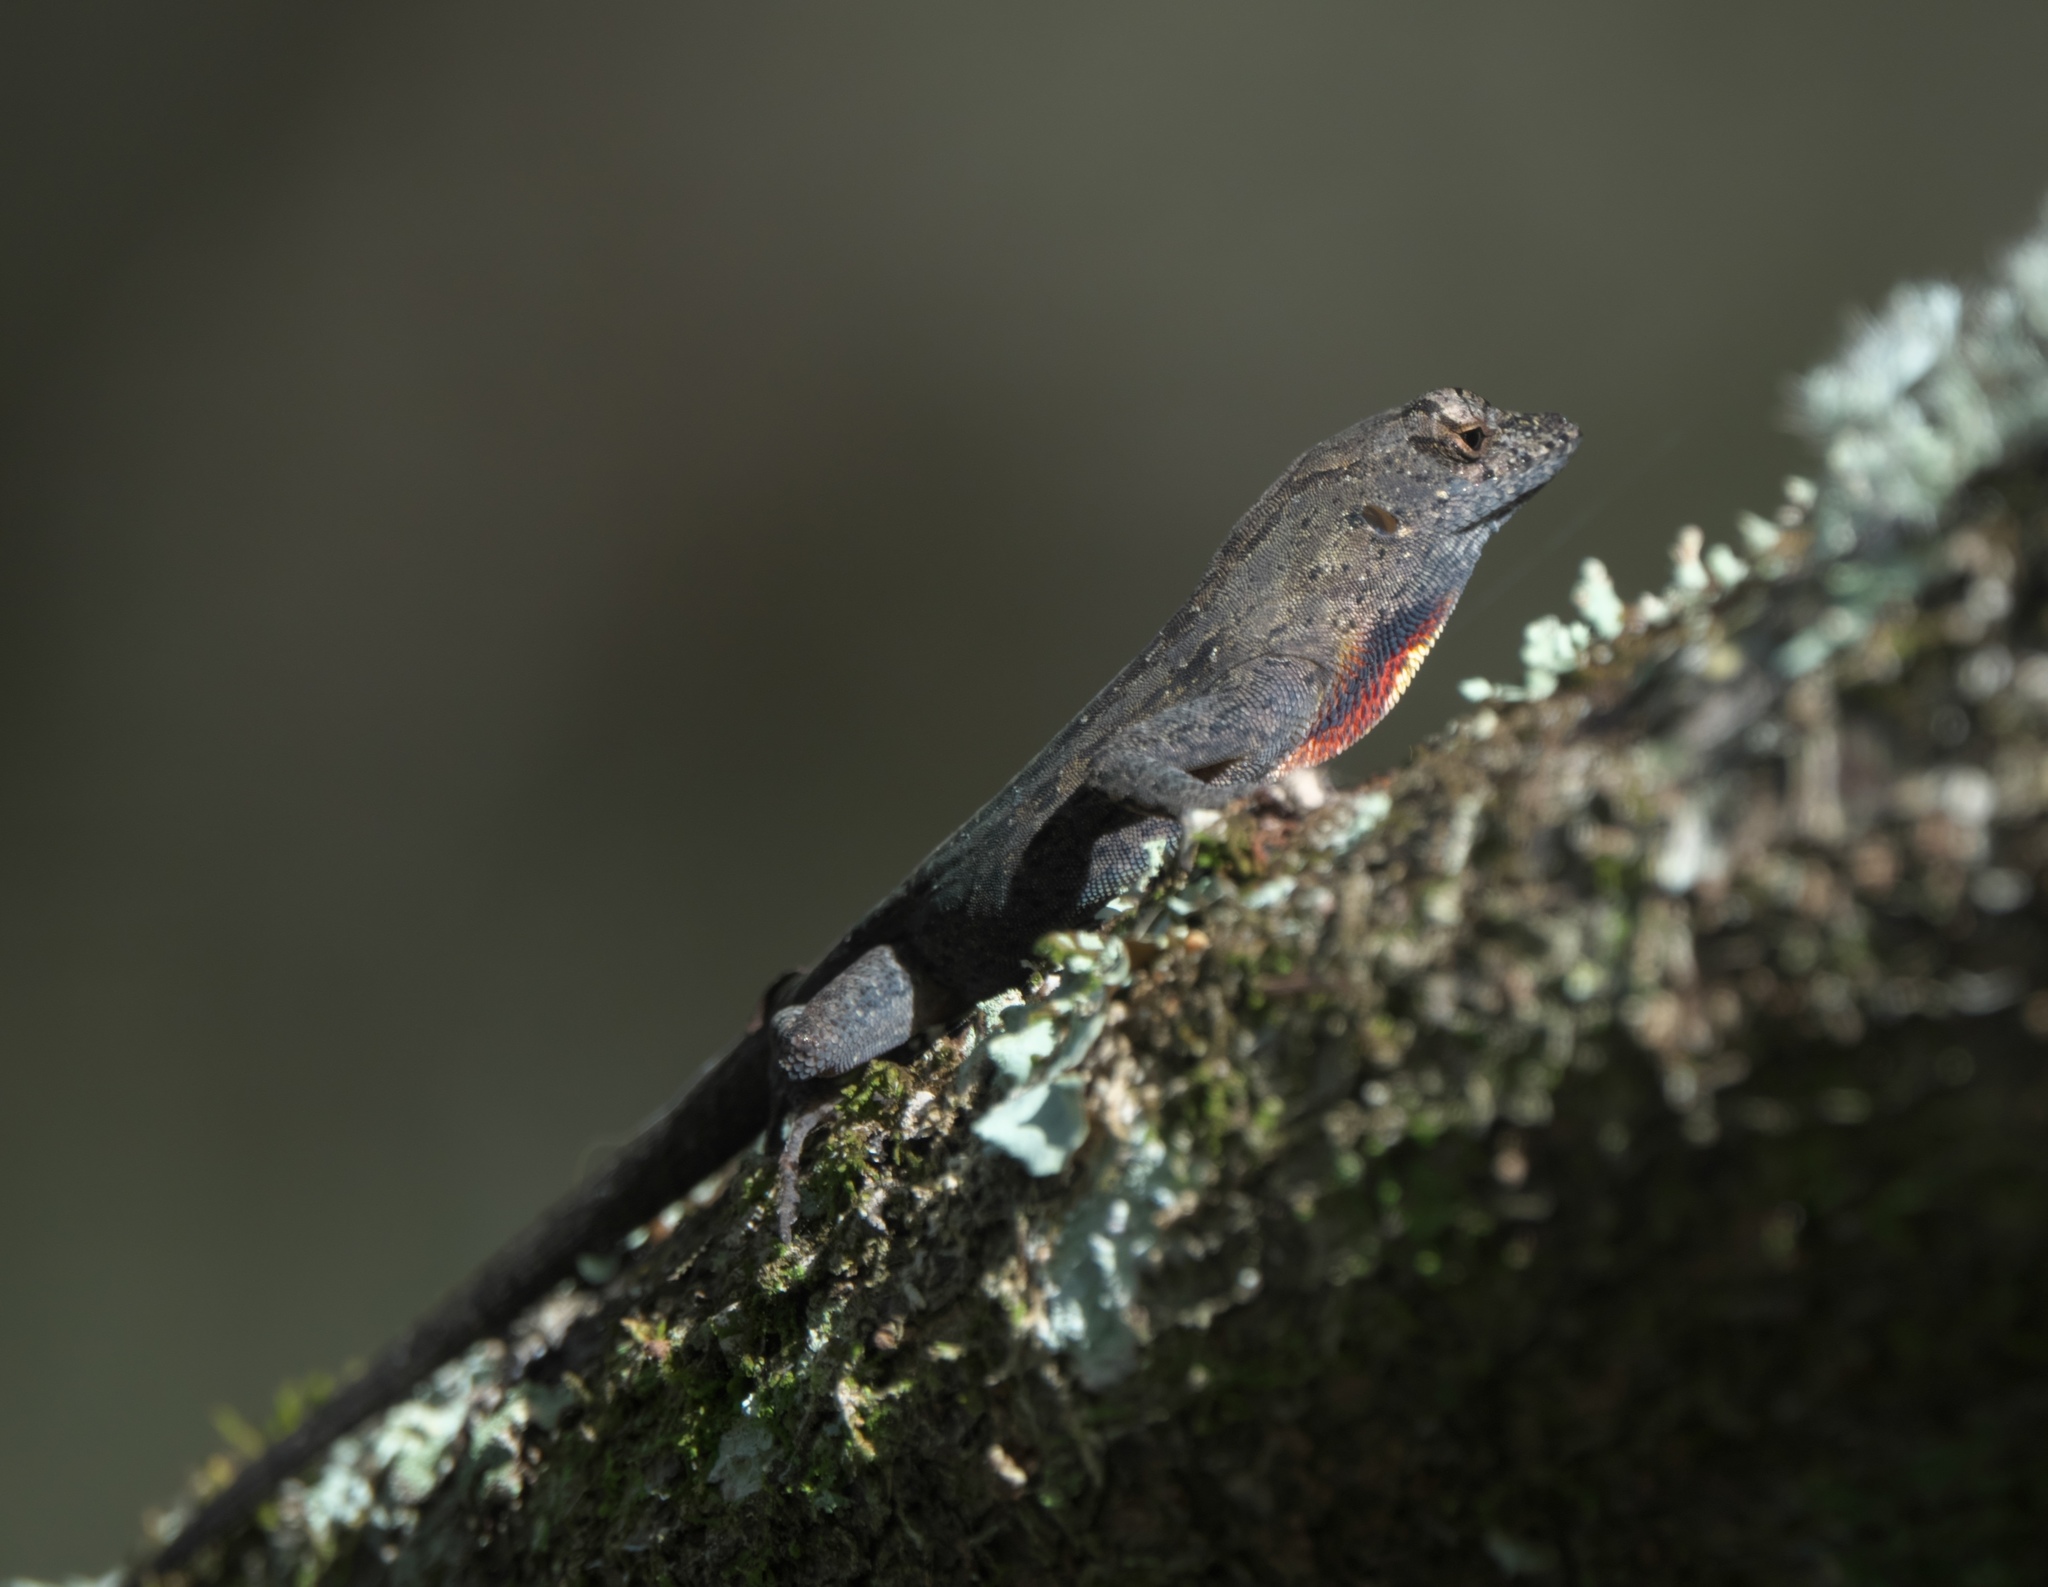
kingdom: Animalia
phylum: Chordata
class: Squamata
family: Dactyloidae
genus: Anolis
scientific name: Anolis sagrei
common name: Brown anole
